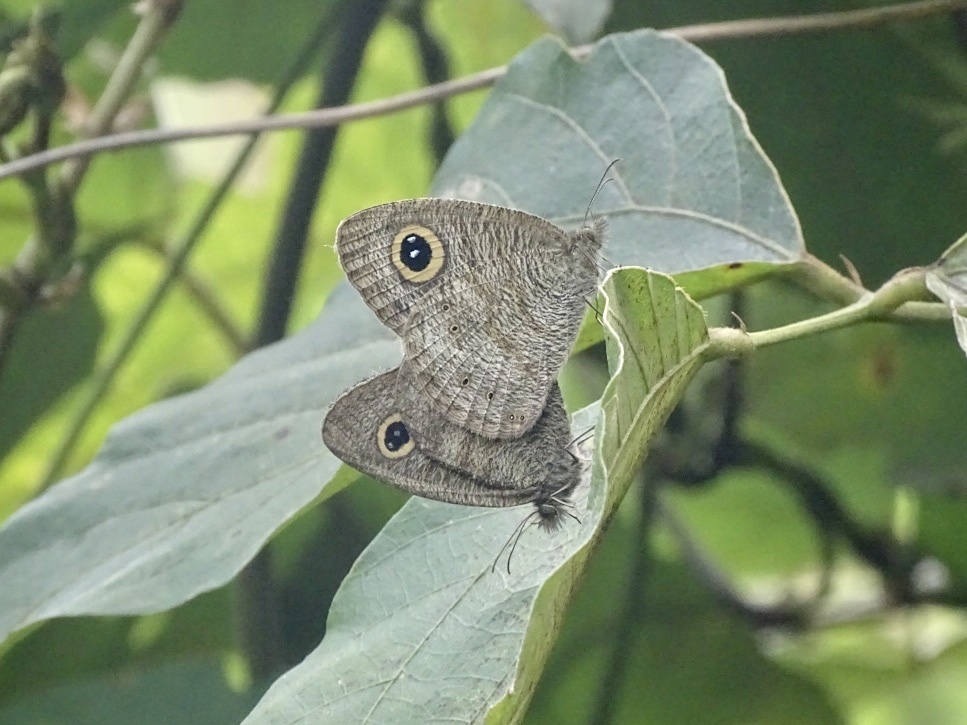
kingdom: Animalia
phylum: Arthropoda
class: Insecta
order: Lepidoptera
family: Nymphalidae
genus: Ypthima
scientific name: Ypthima baldus
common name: Common five-ring
